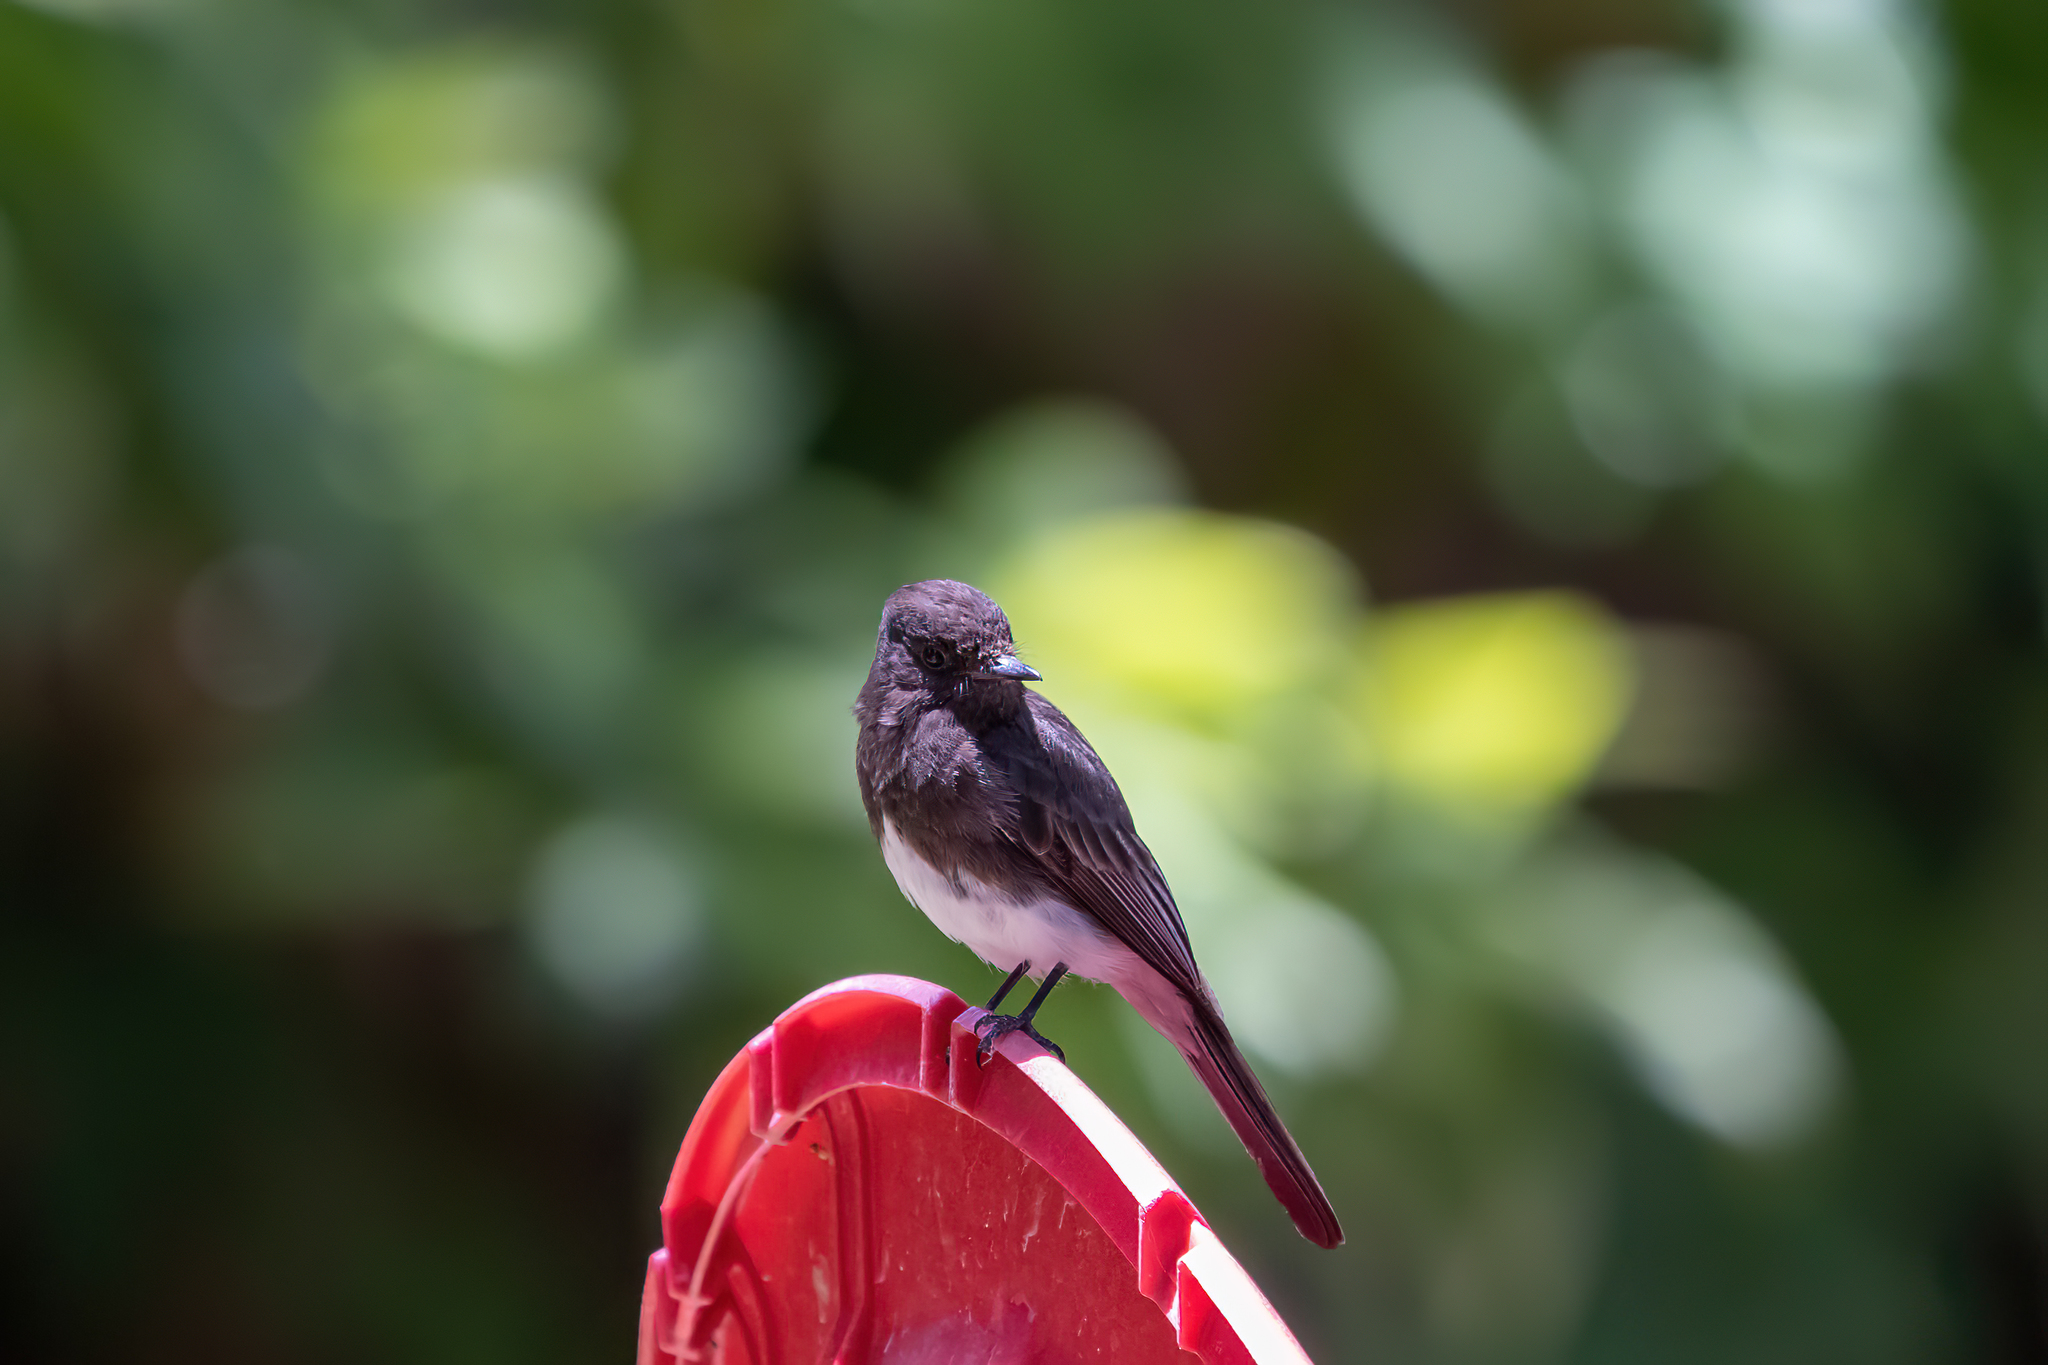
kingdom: Animalia
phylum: Chordata
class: Aves
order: Passeriformes
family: Tyrannidae
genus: Sayornis
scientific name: Sayornis nigricans
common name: Black phoebe
